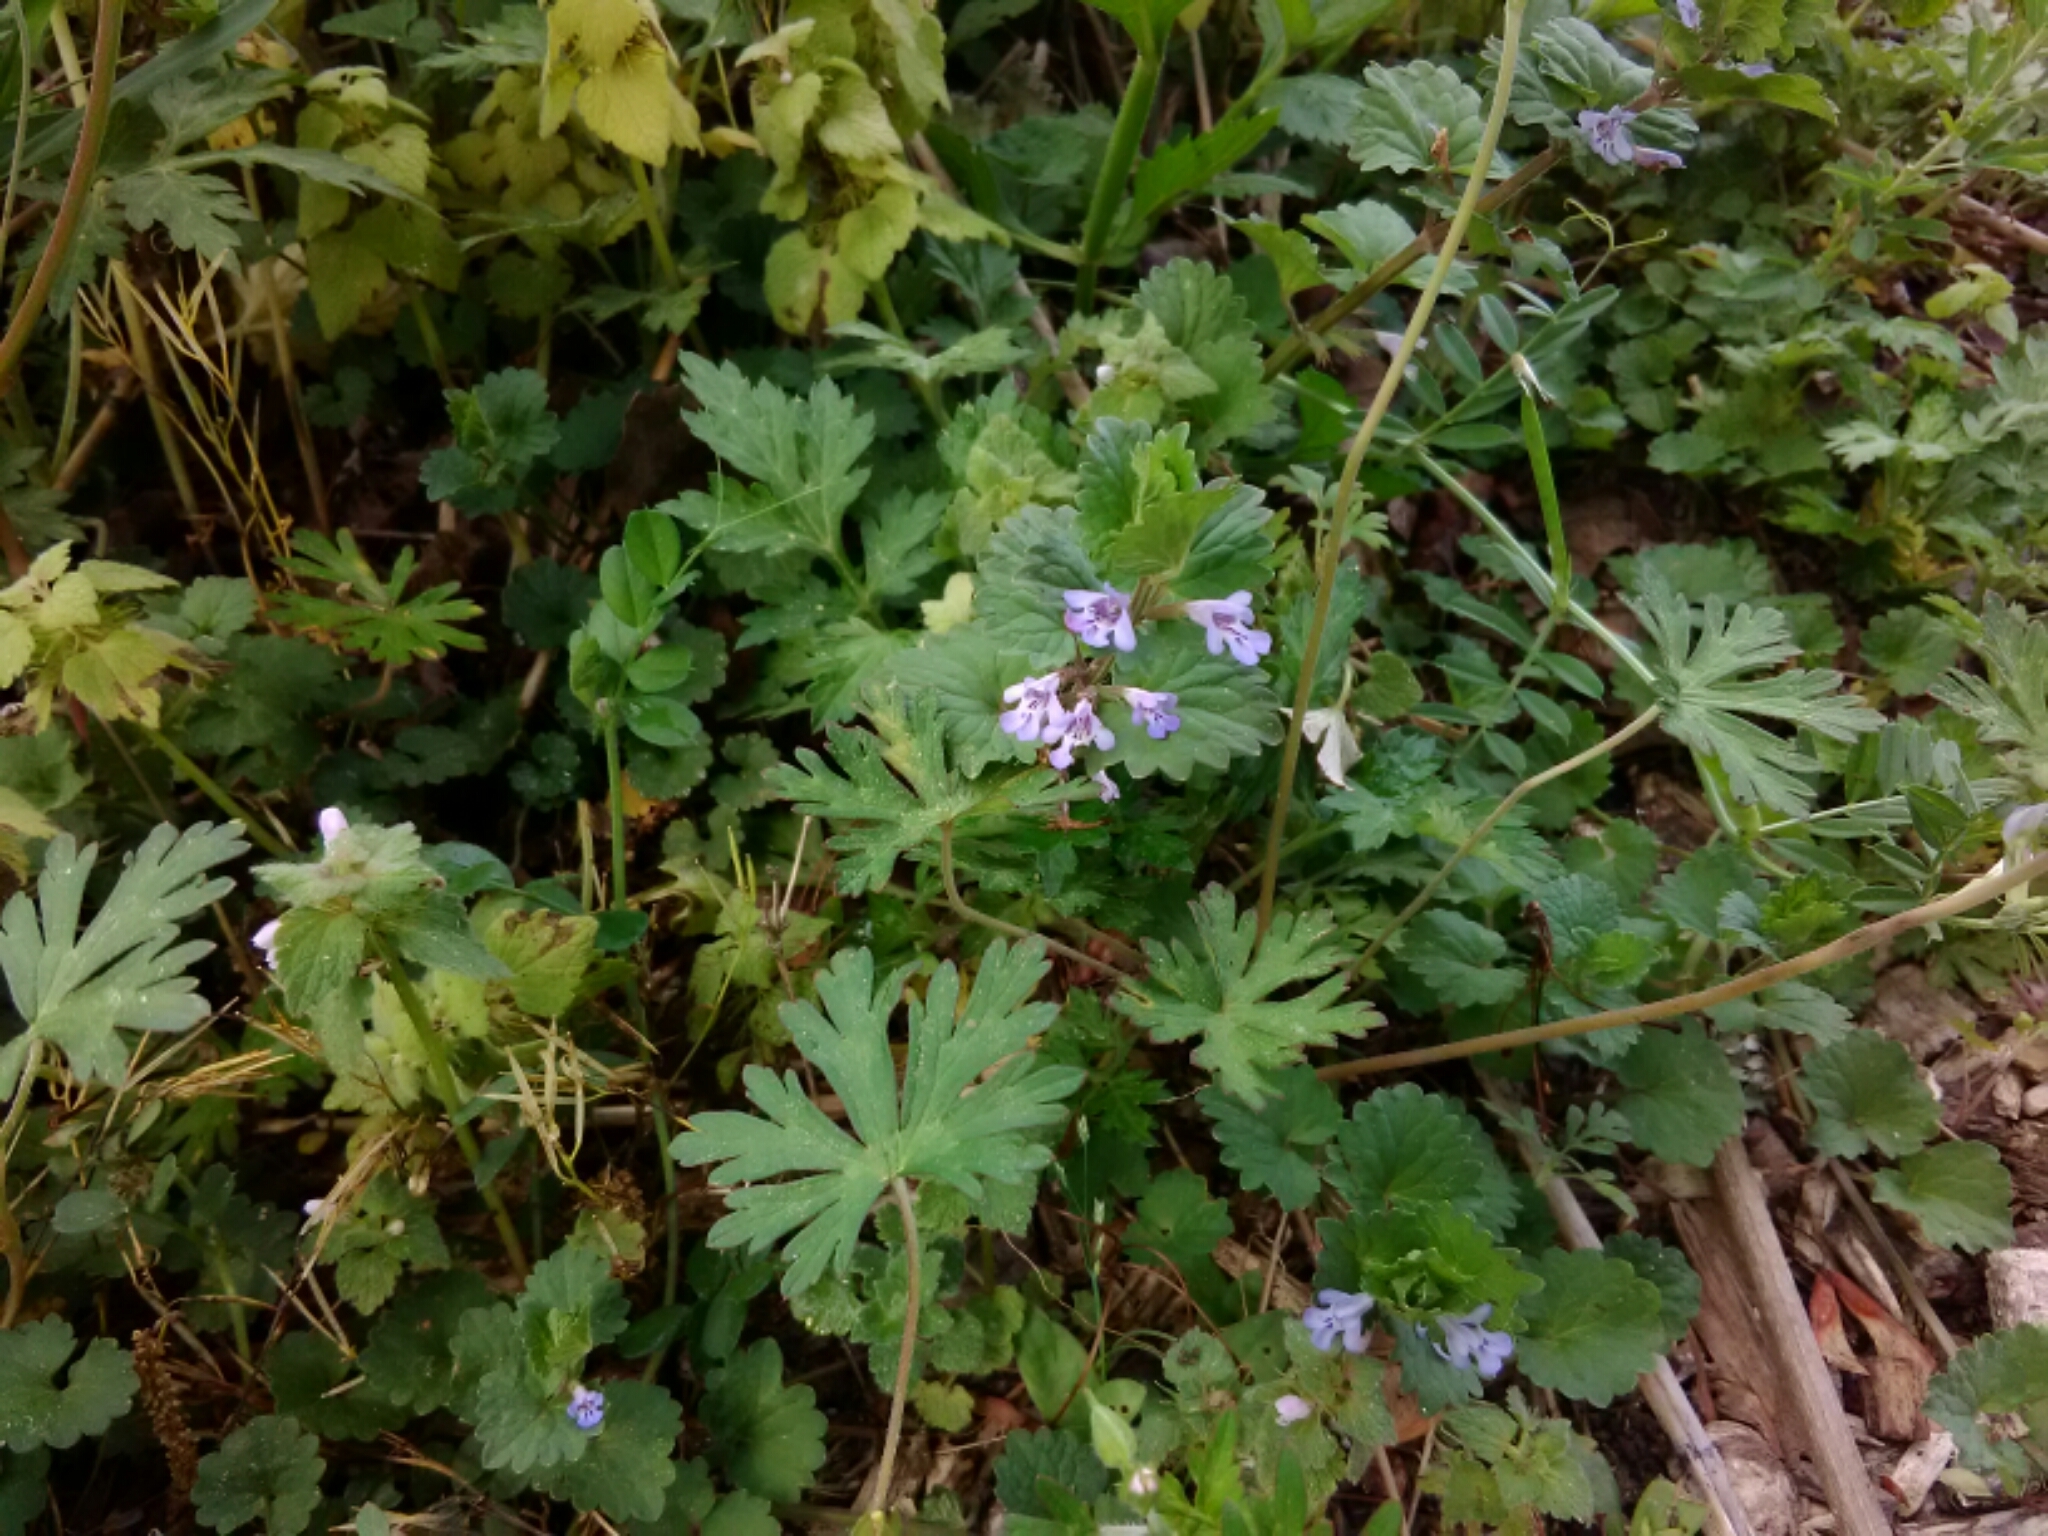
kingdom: Plantae
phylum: Tracheophyta
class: Magnoliopsida
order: Lamiales
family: Lamiaceae
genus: Glechoma
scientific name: Glechoma hederacea
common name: Ground ivy
